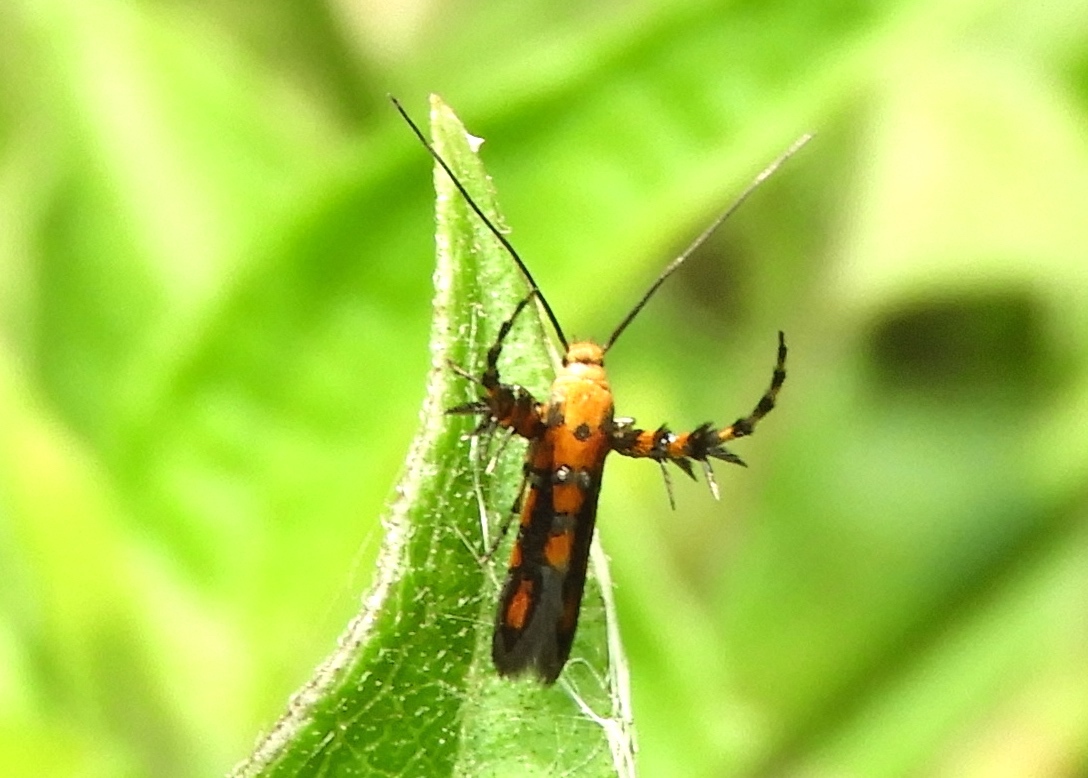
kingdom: Animalia
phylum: Arthropoda
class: Insecta
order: Lepidoptera
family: Heliodinidae
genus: Heliodines
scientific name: Heliodines
